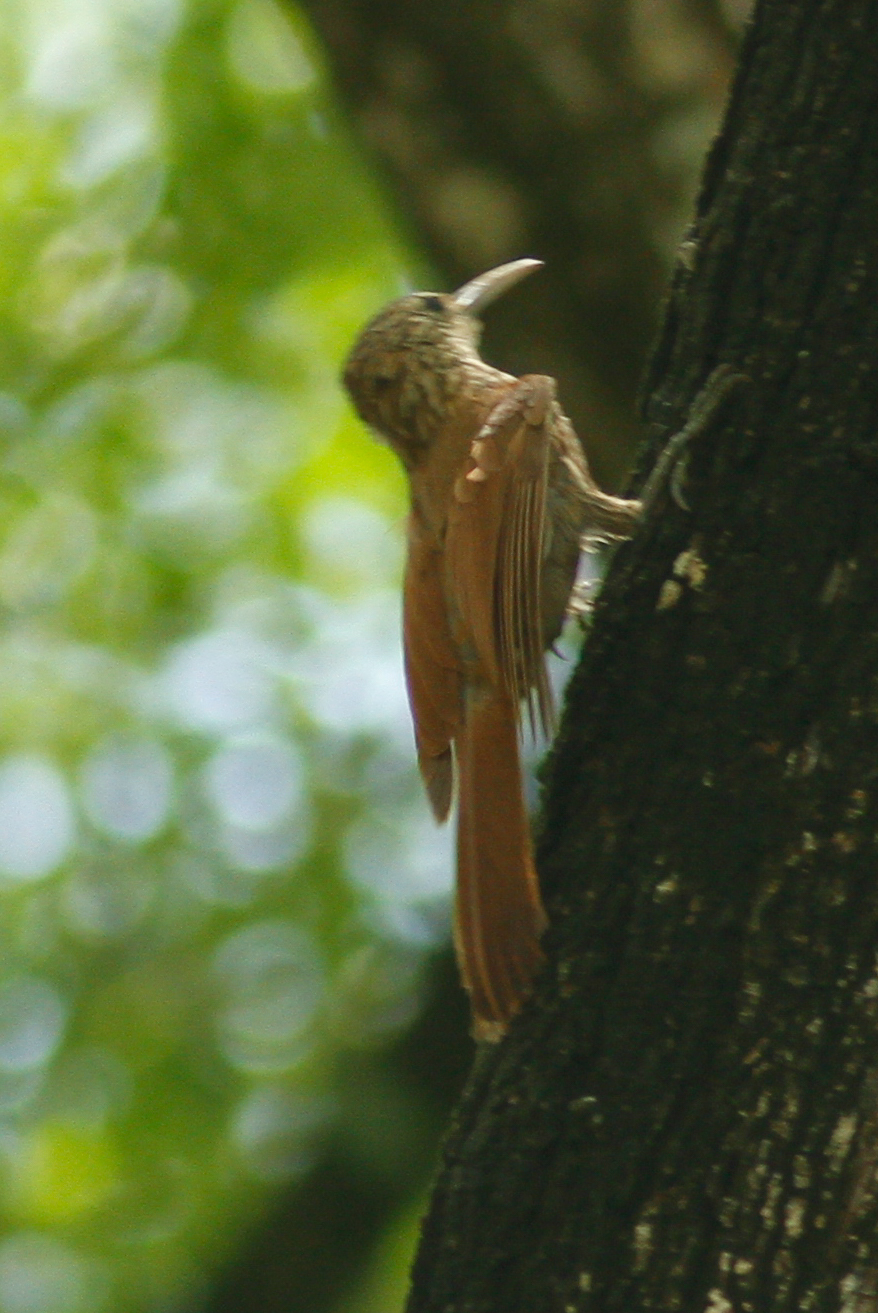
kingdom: Animalia
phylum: Chordata
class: Aves
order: Passeriformes
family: Furnariidae
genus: Lepidocolaptes
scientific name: Lepidocolaptes souleyetii
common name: Streak-headed woodcreeper
